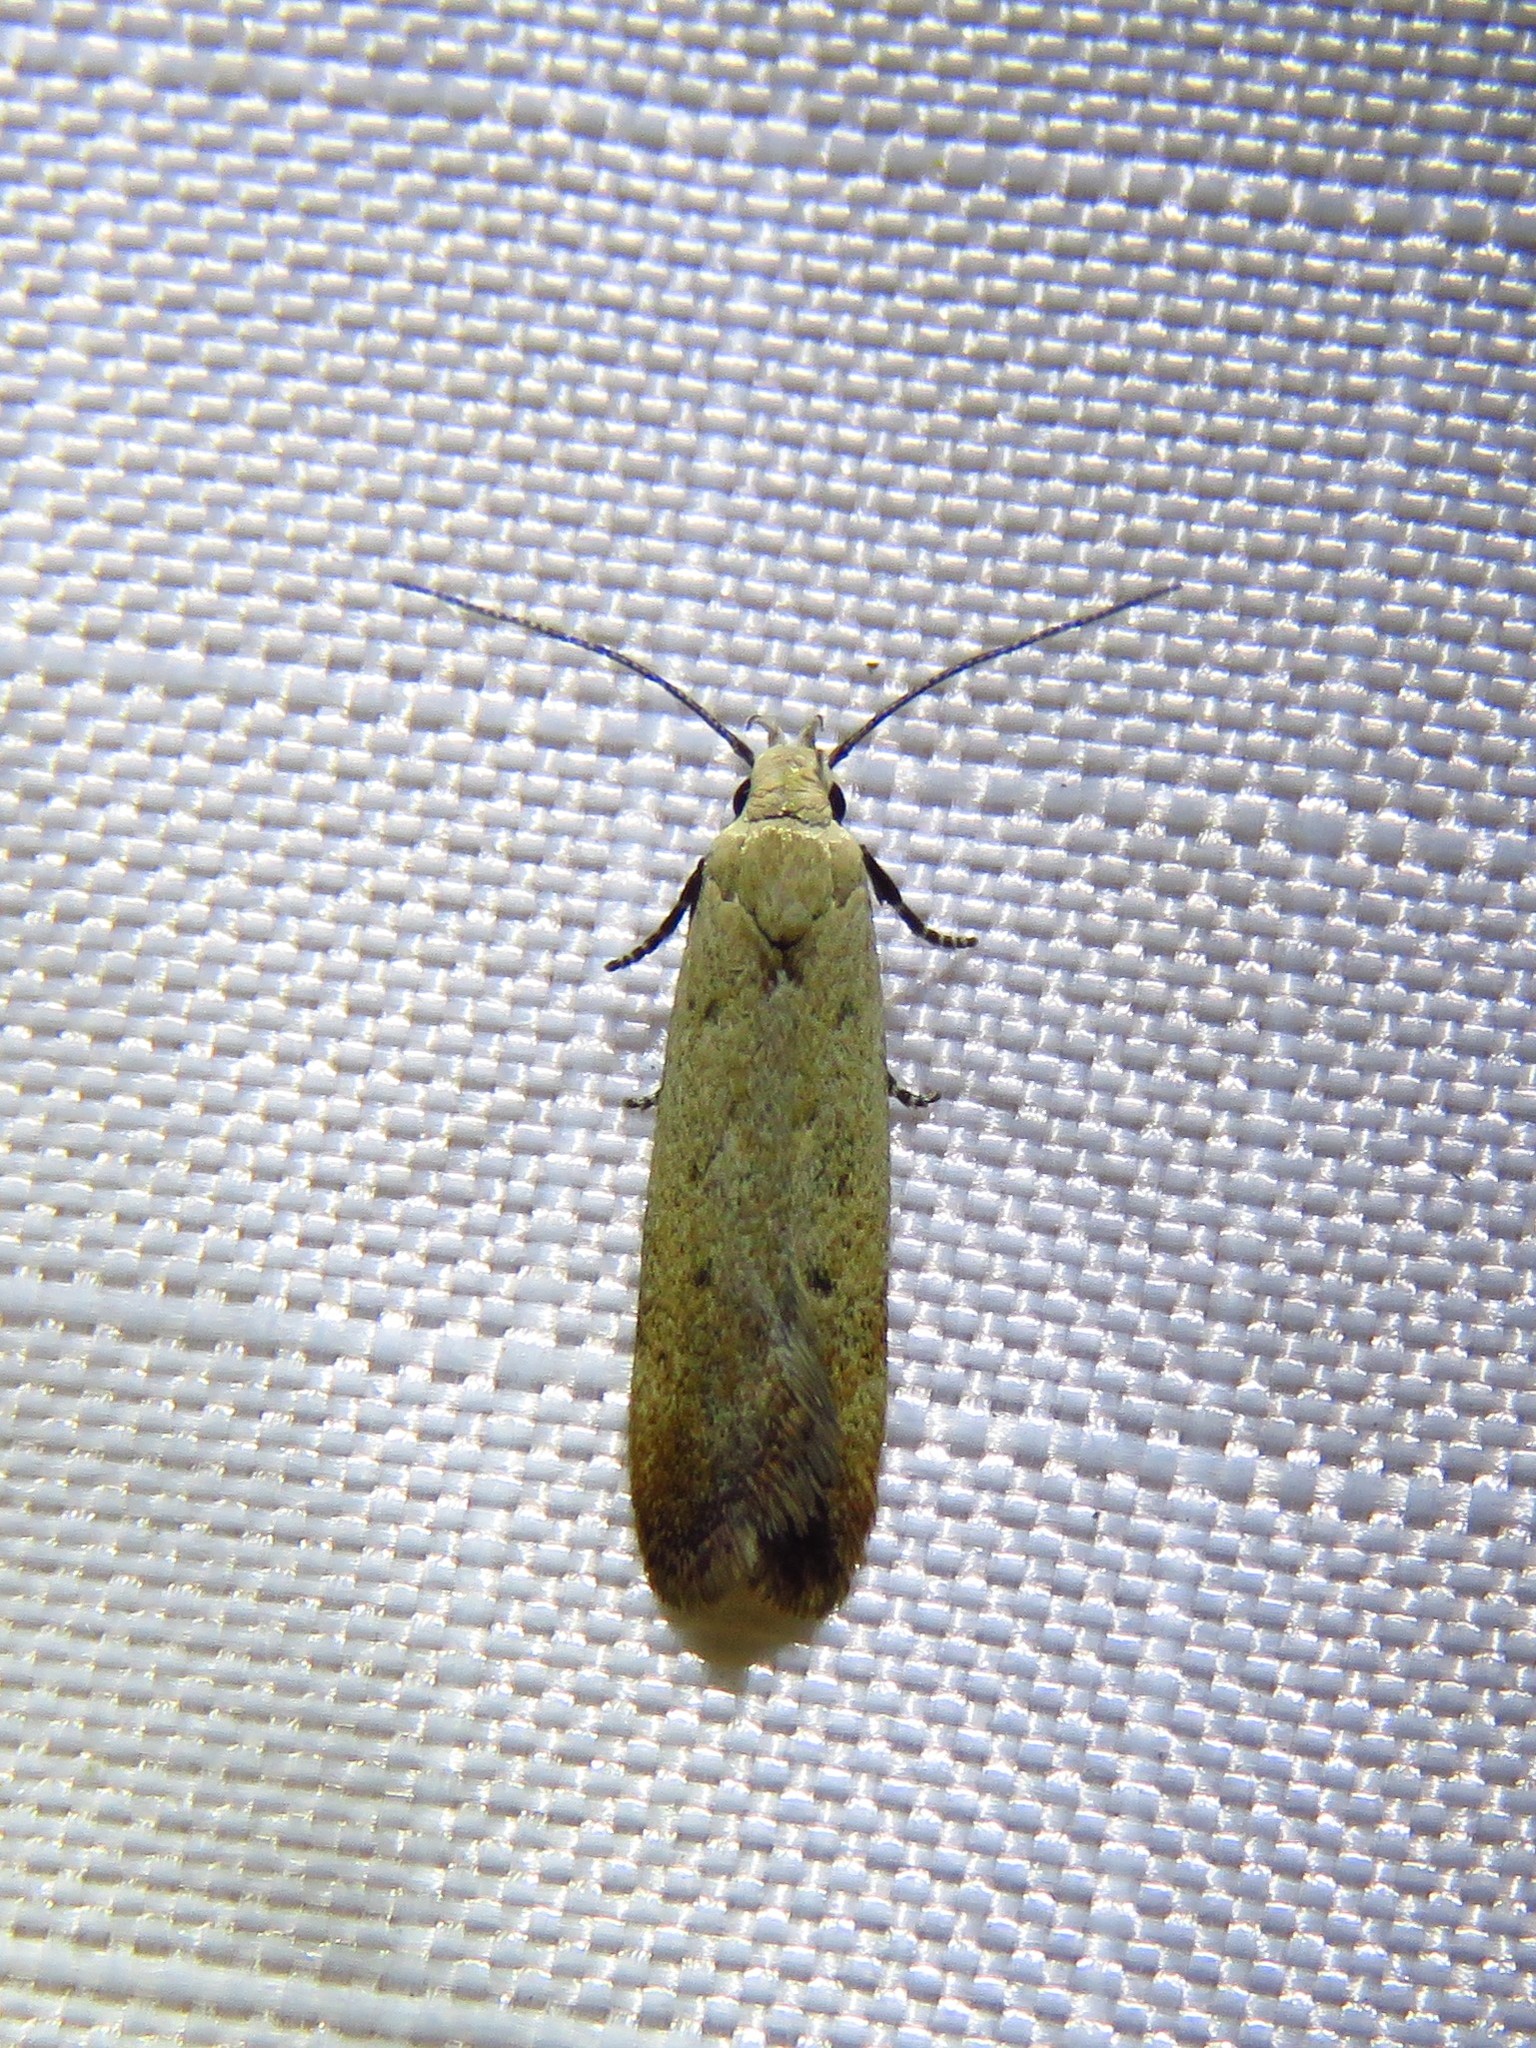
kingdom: Animalia
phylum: Arthropoda
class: Insecta
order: Lepidoptera
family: Gelechiidae
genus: Anacampsis
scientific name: Anacampsis fullonella
